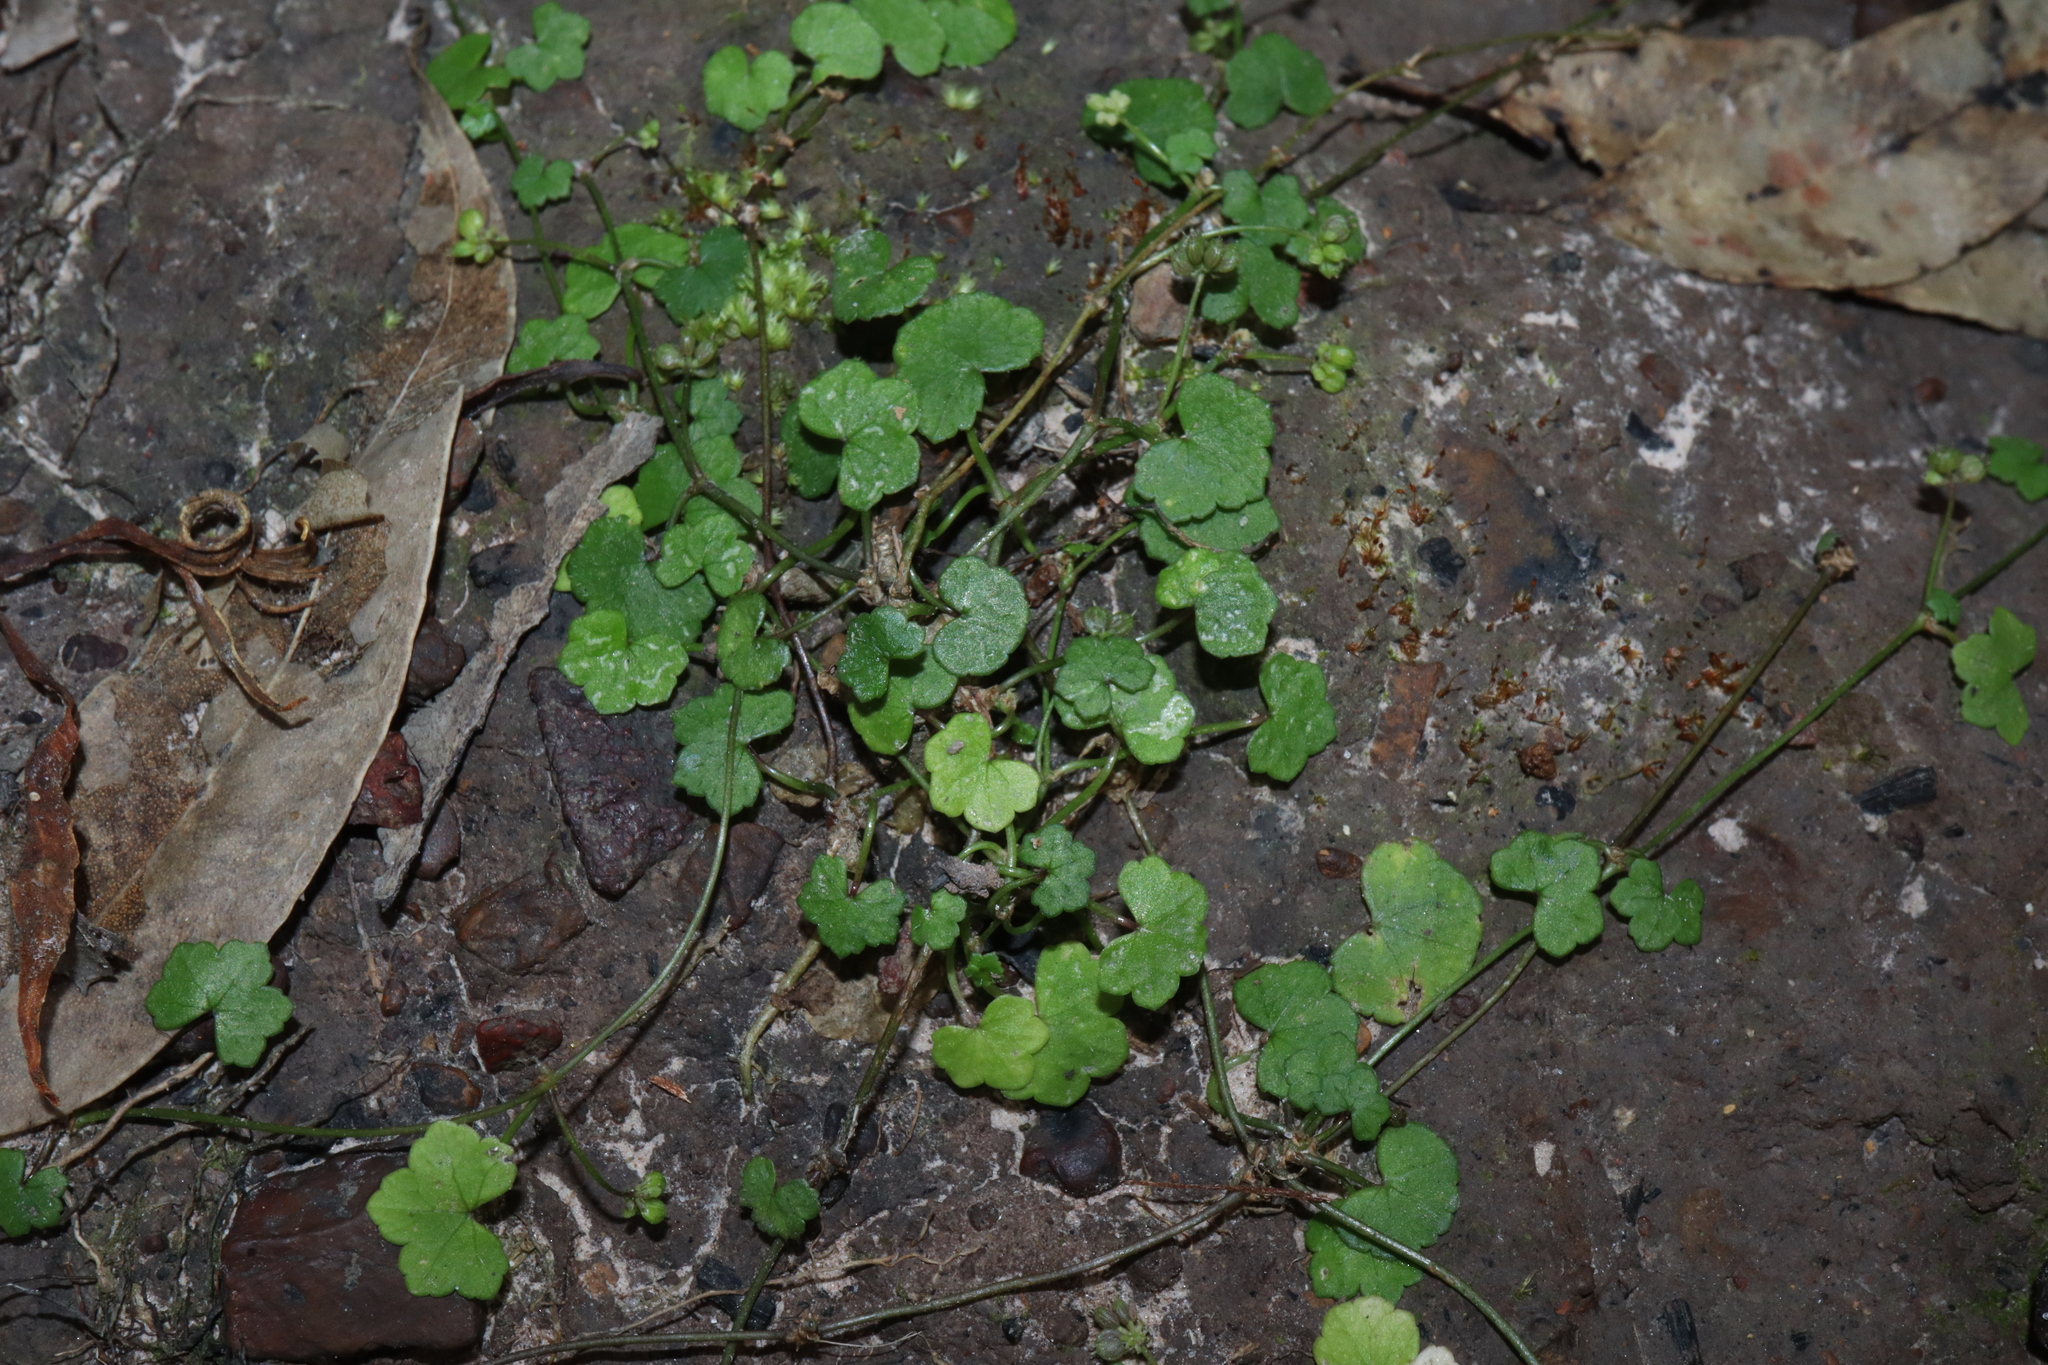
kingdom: Plantae
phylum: Tracheophyta
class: Magnoliopsida
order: Apiales
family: Araliaceae
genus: Hydrocotyle
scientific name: Hydrocotyle hirta
